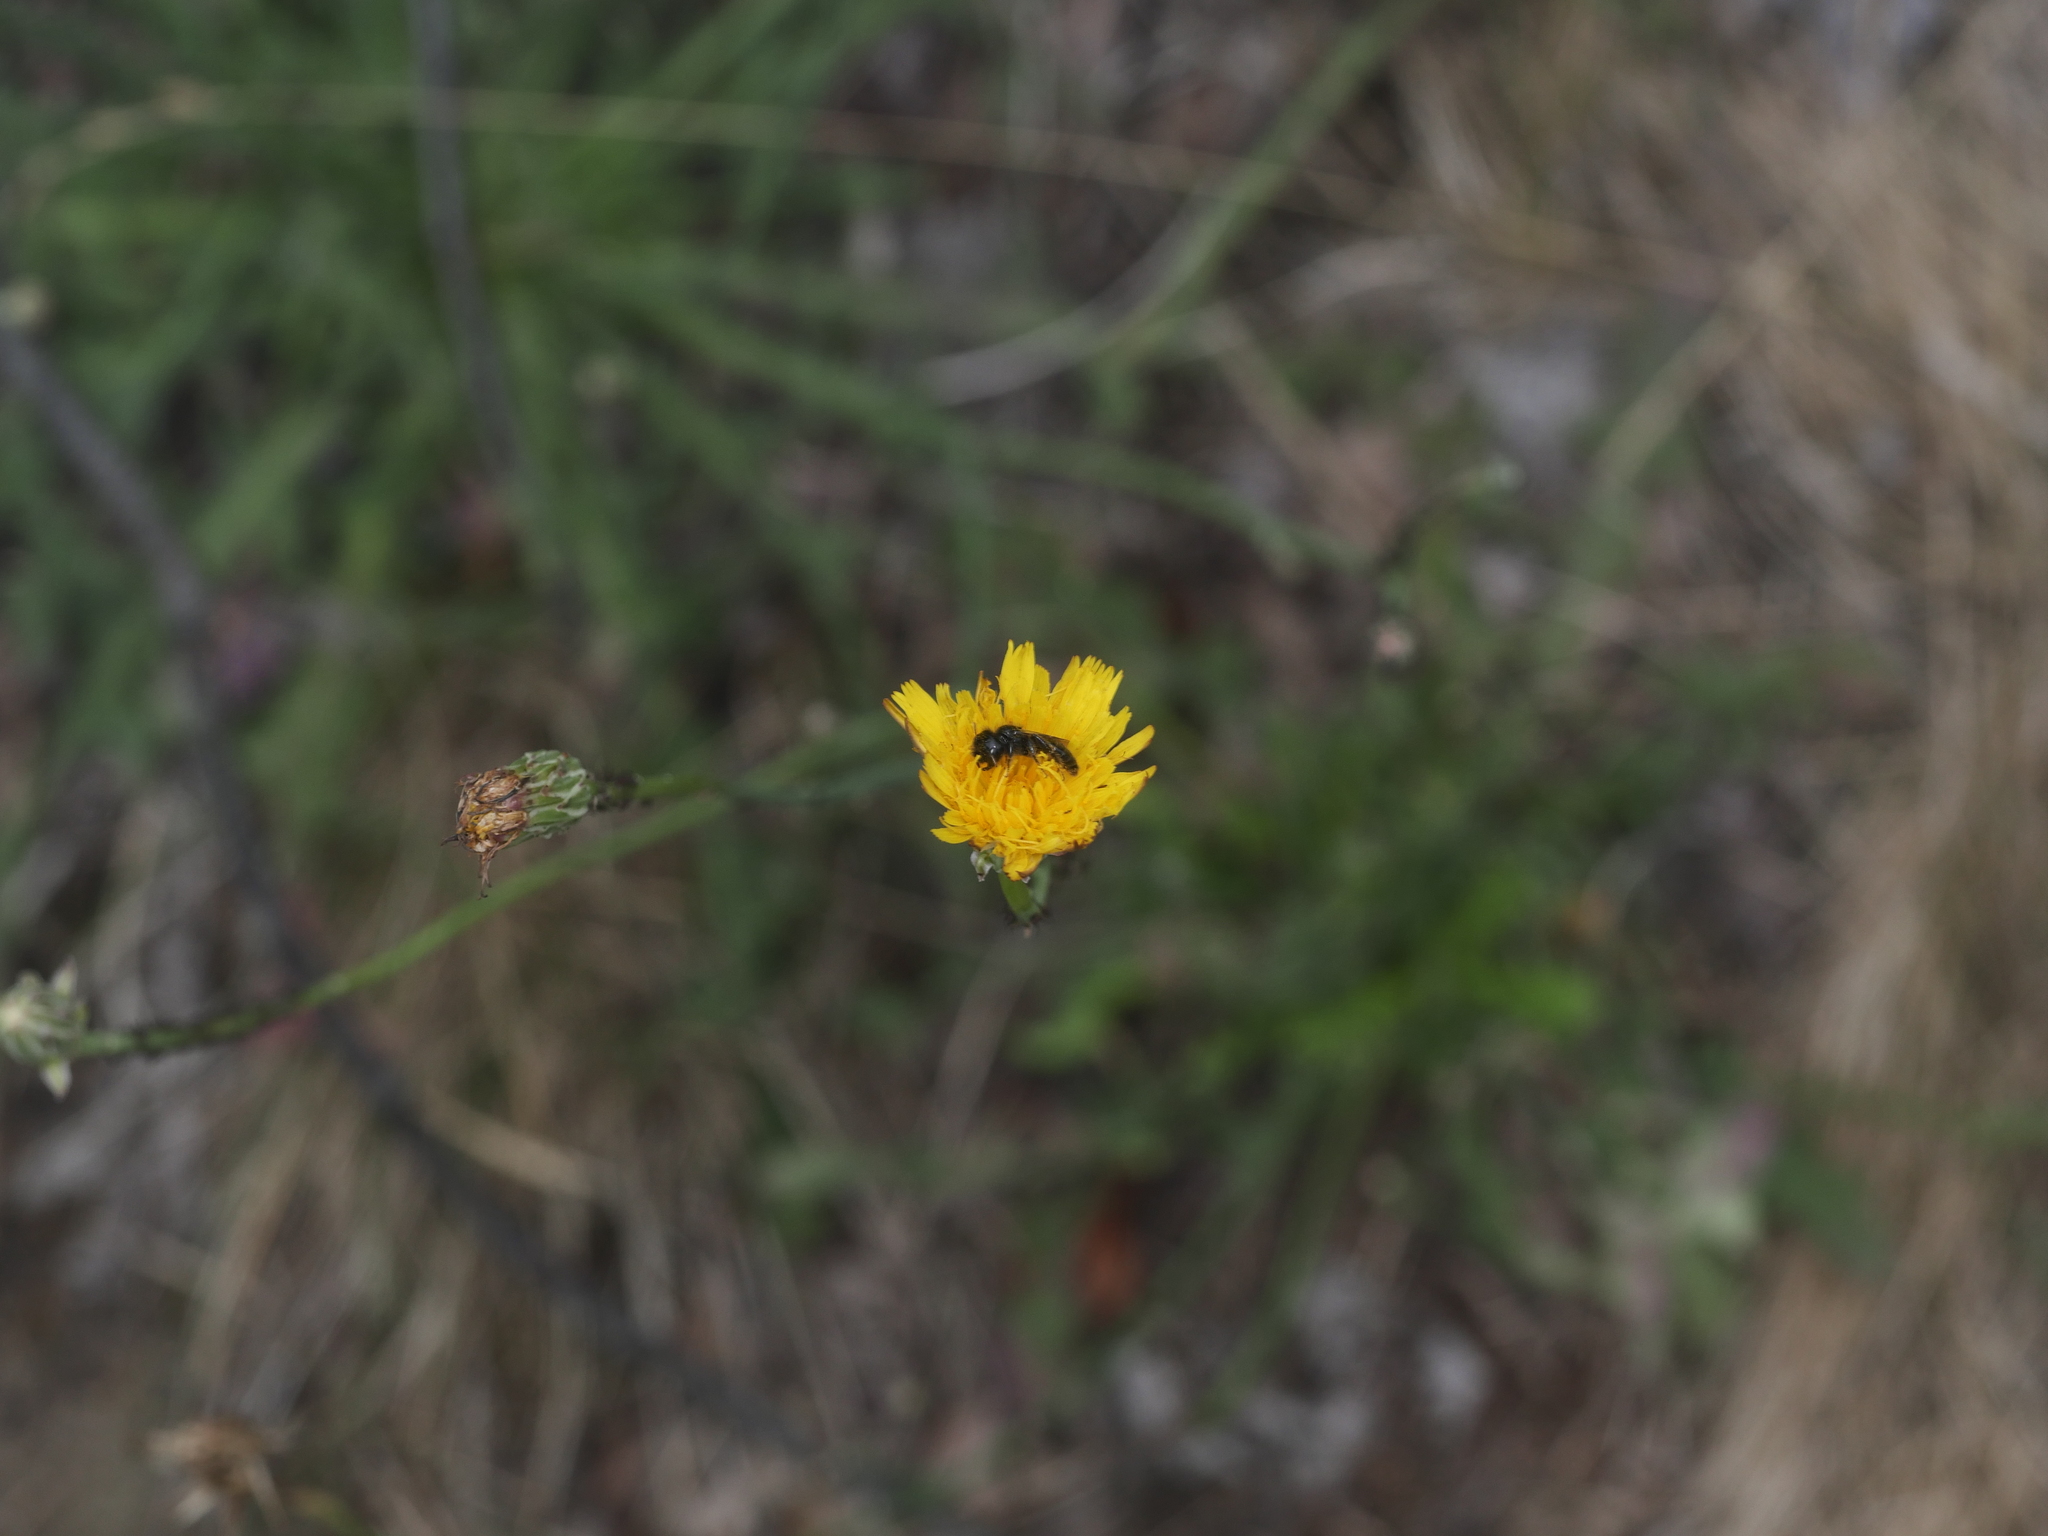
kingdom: Plantae
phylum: Tracheophyta
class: Magnoliopsida
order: Asterales
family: Asteraceae
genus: Hypochaeris
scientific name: Hypochaeris radicata
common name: Flatweed
